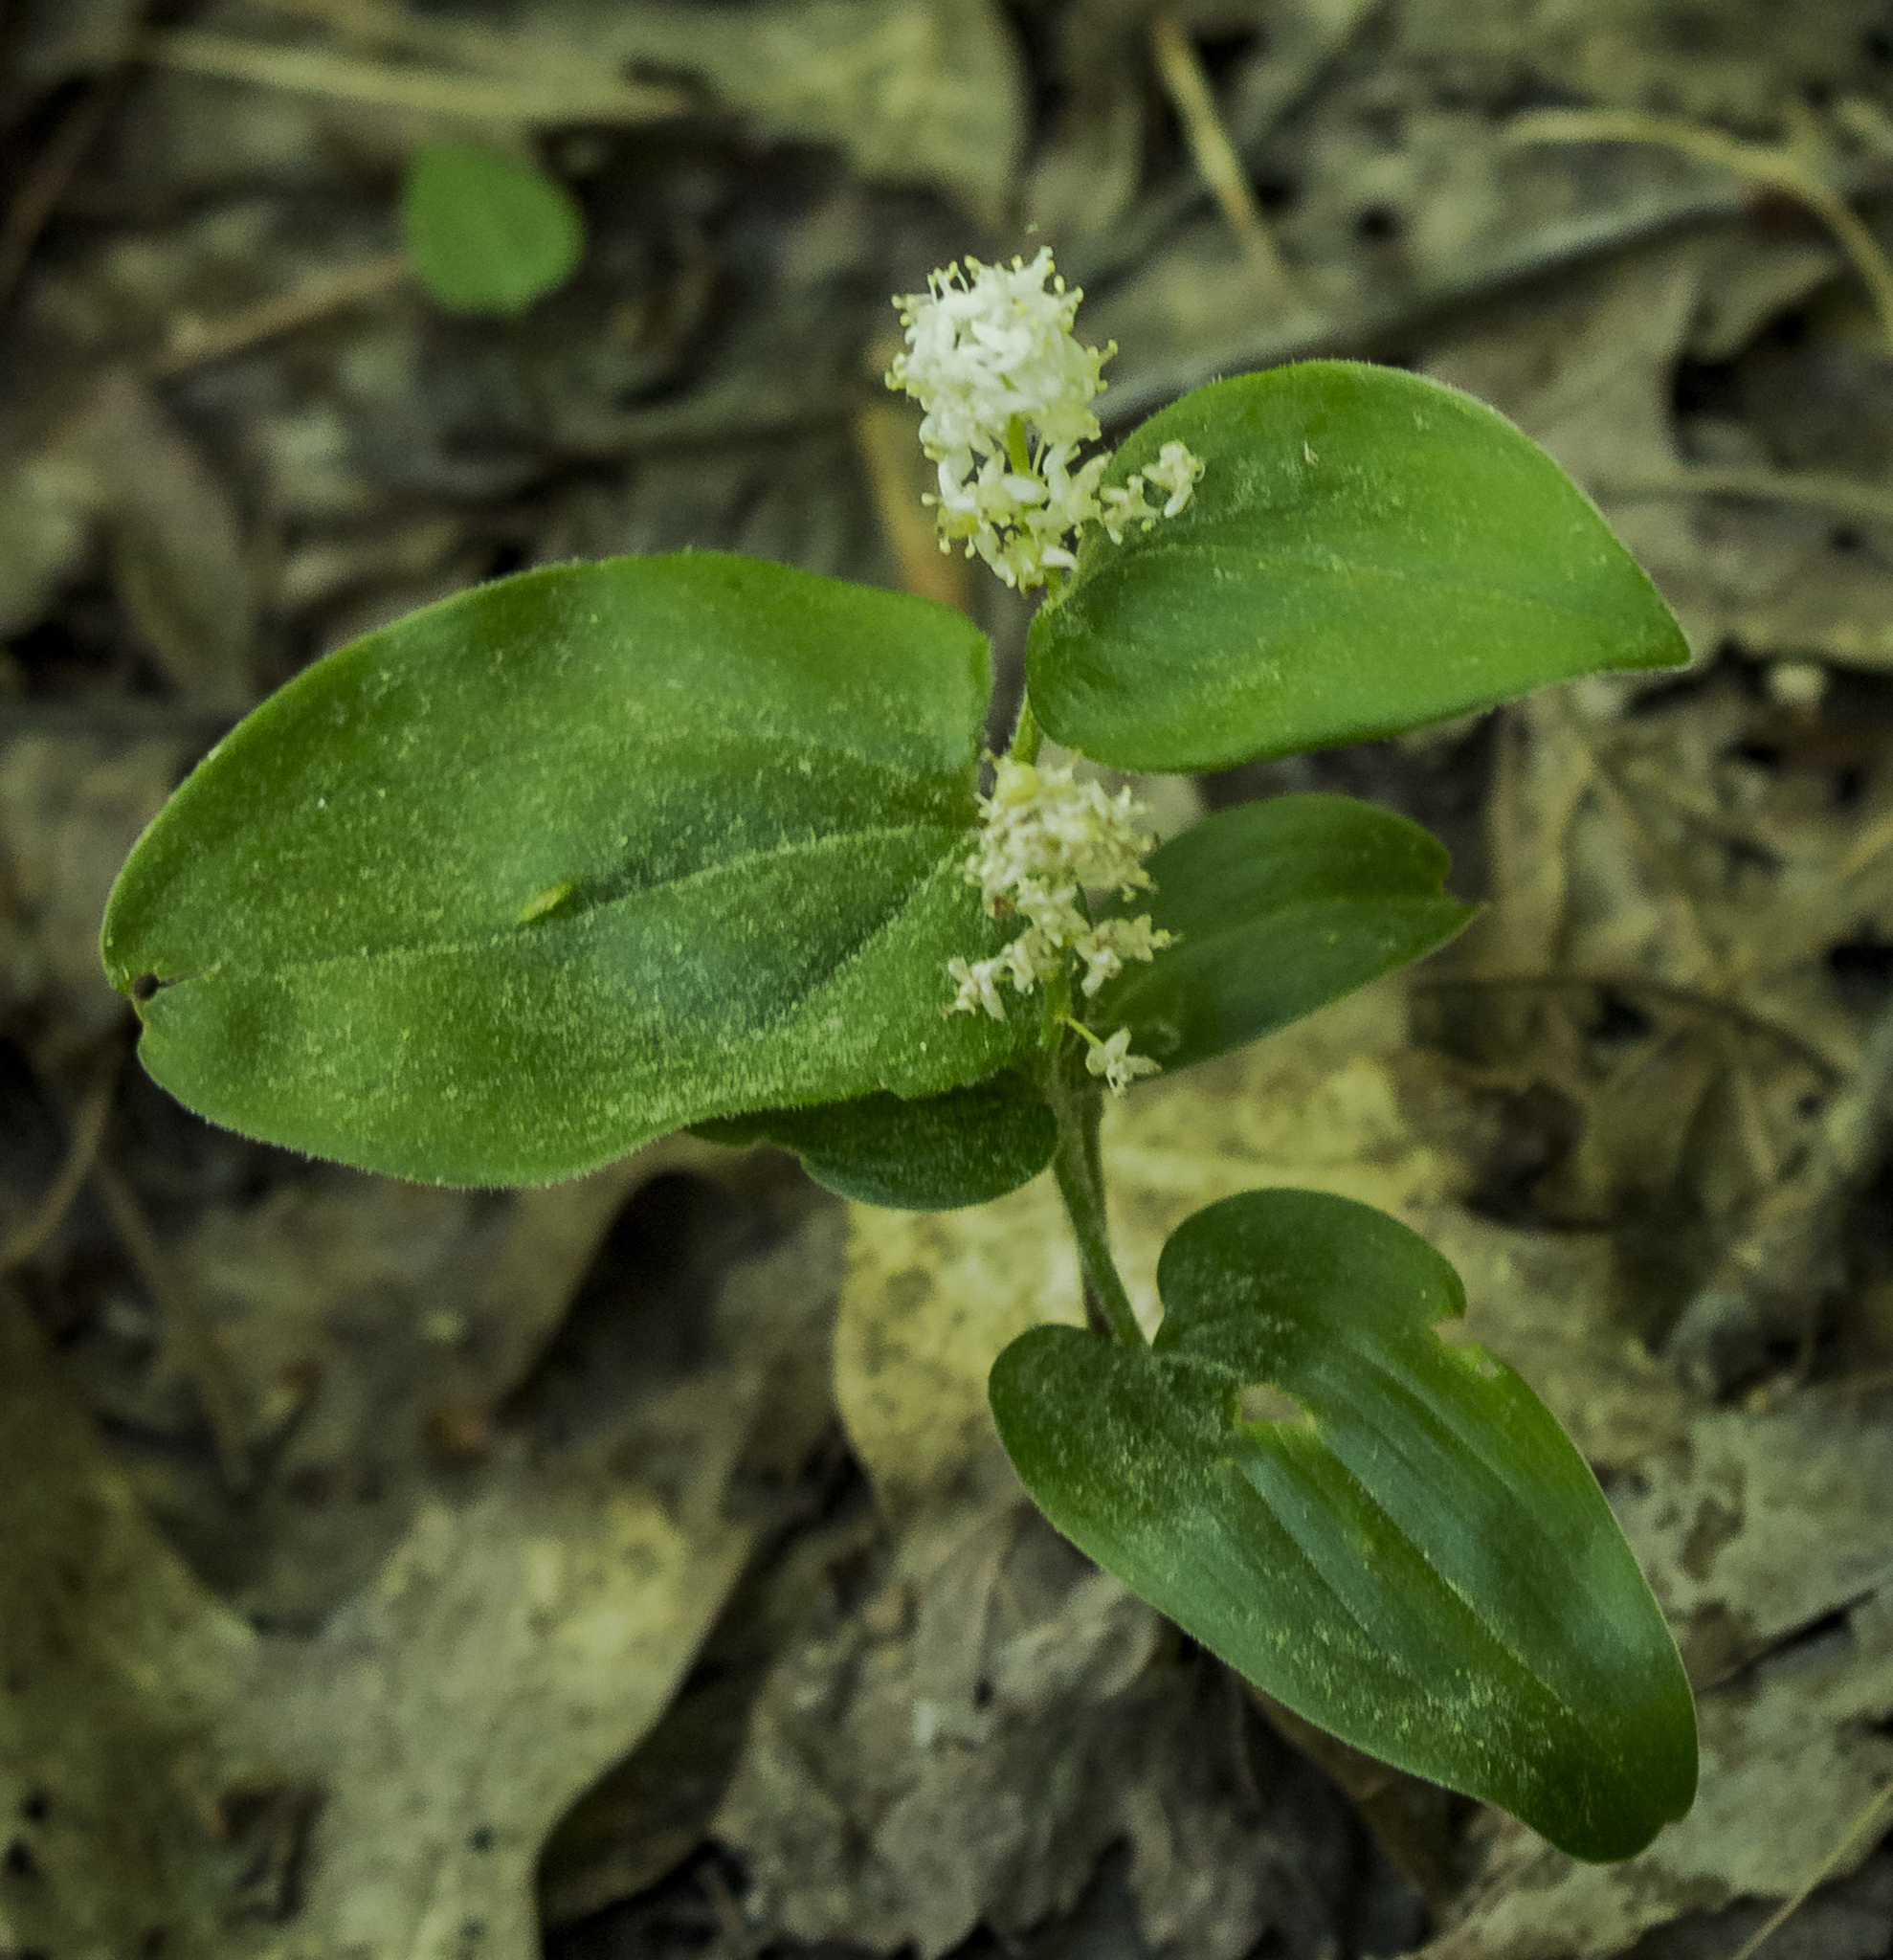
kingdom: Plantae
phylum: Tracheophyta
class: Liliopsida
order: Asparagales
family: Asparagaceae
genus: Maianthemum
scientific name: Maianthemum canadense
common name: False lily-of-the-valley
